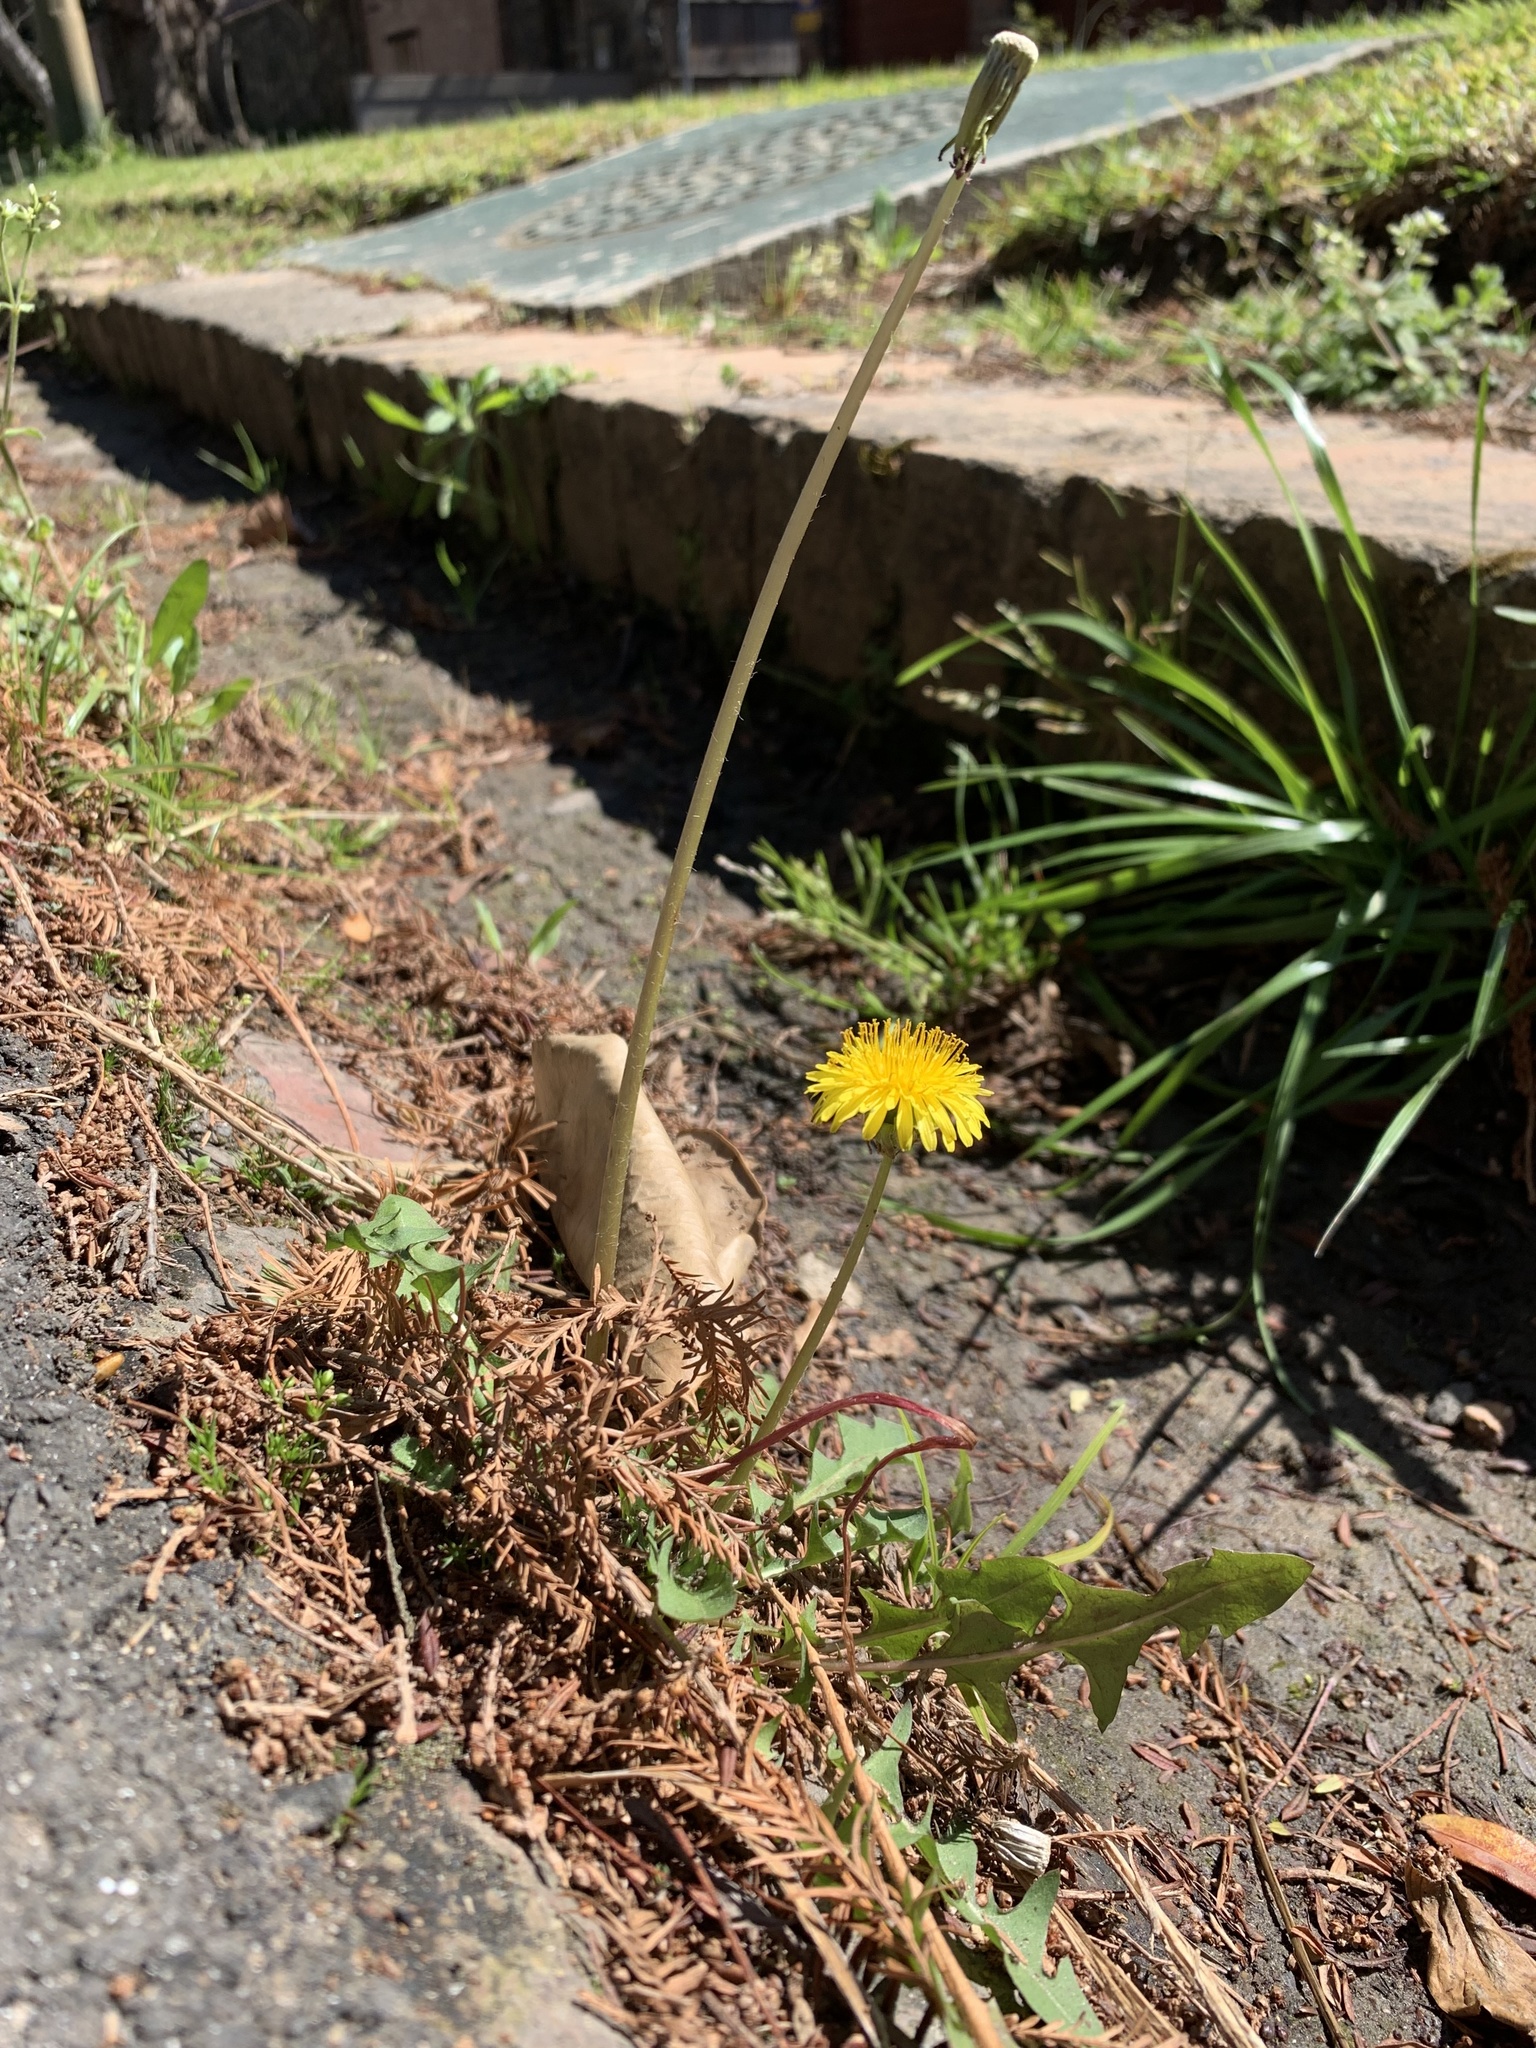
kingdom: Plantae
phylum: Tracheophyta
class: Magnoliopsida
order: Asterales
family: Asteraceae
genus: Taraxacum
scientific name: Taraxacum officinale
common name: Common dandelion
